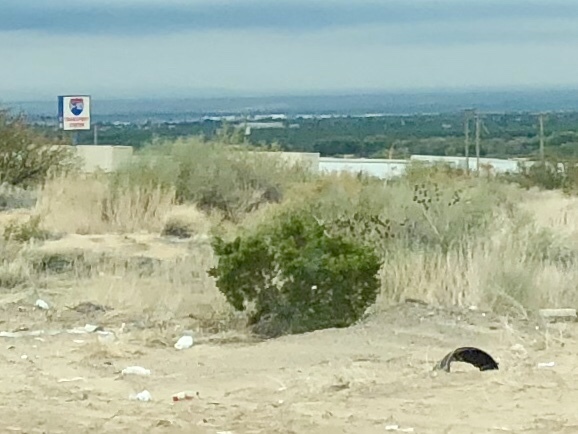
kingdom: Plantae
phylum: Tracheophyta
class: Magnoliopsida
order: Zygophyllales
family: Zygophyllaceae
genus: Larrea
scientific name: Larrea tridentata
